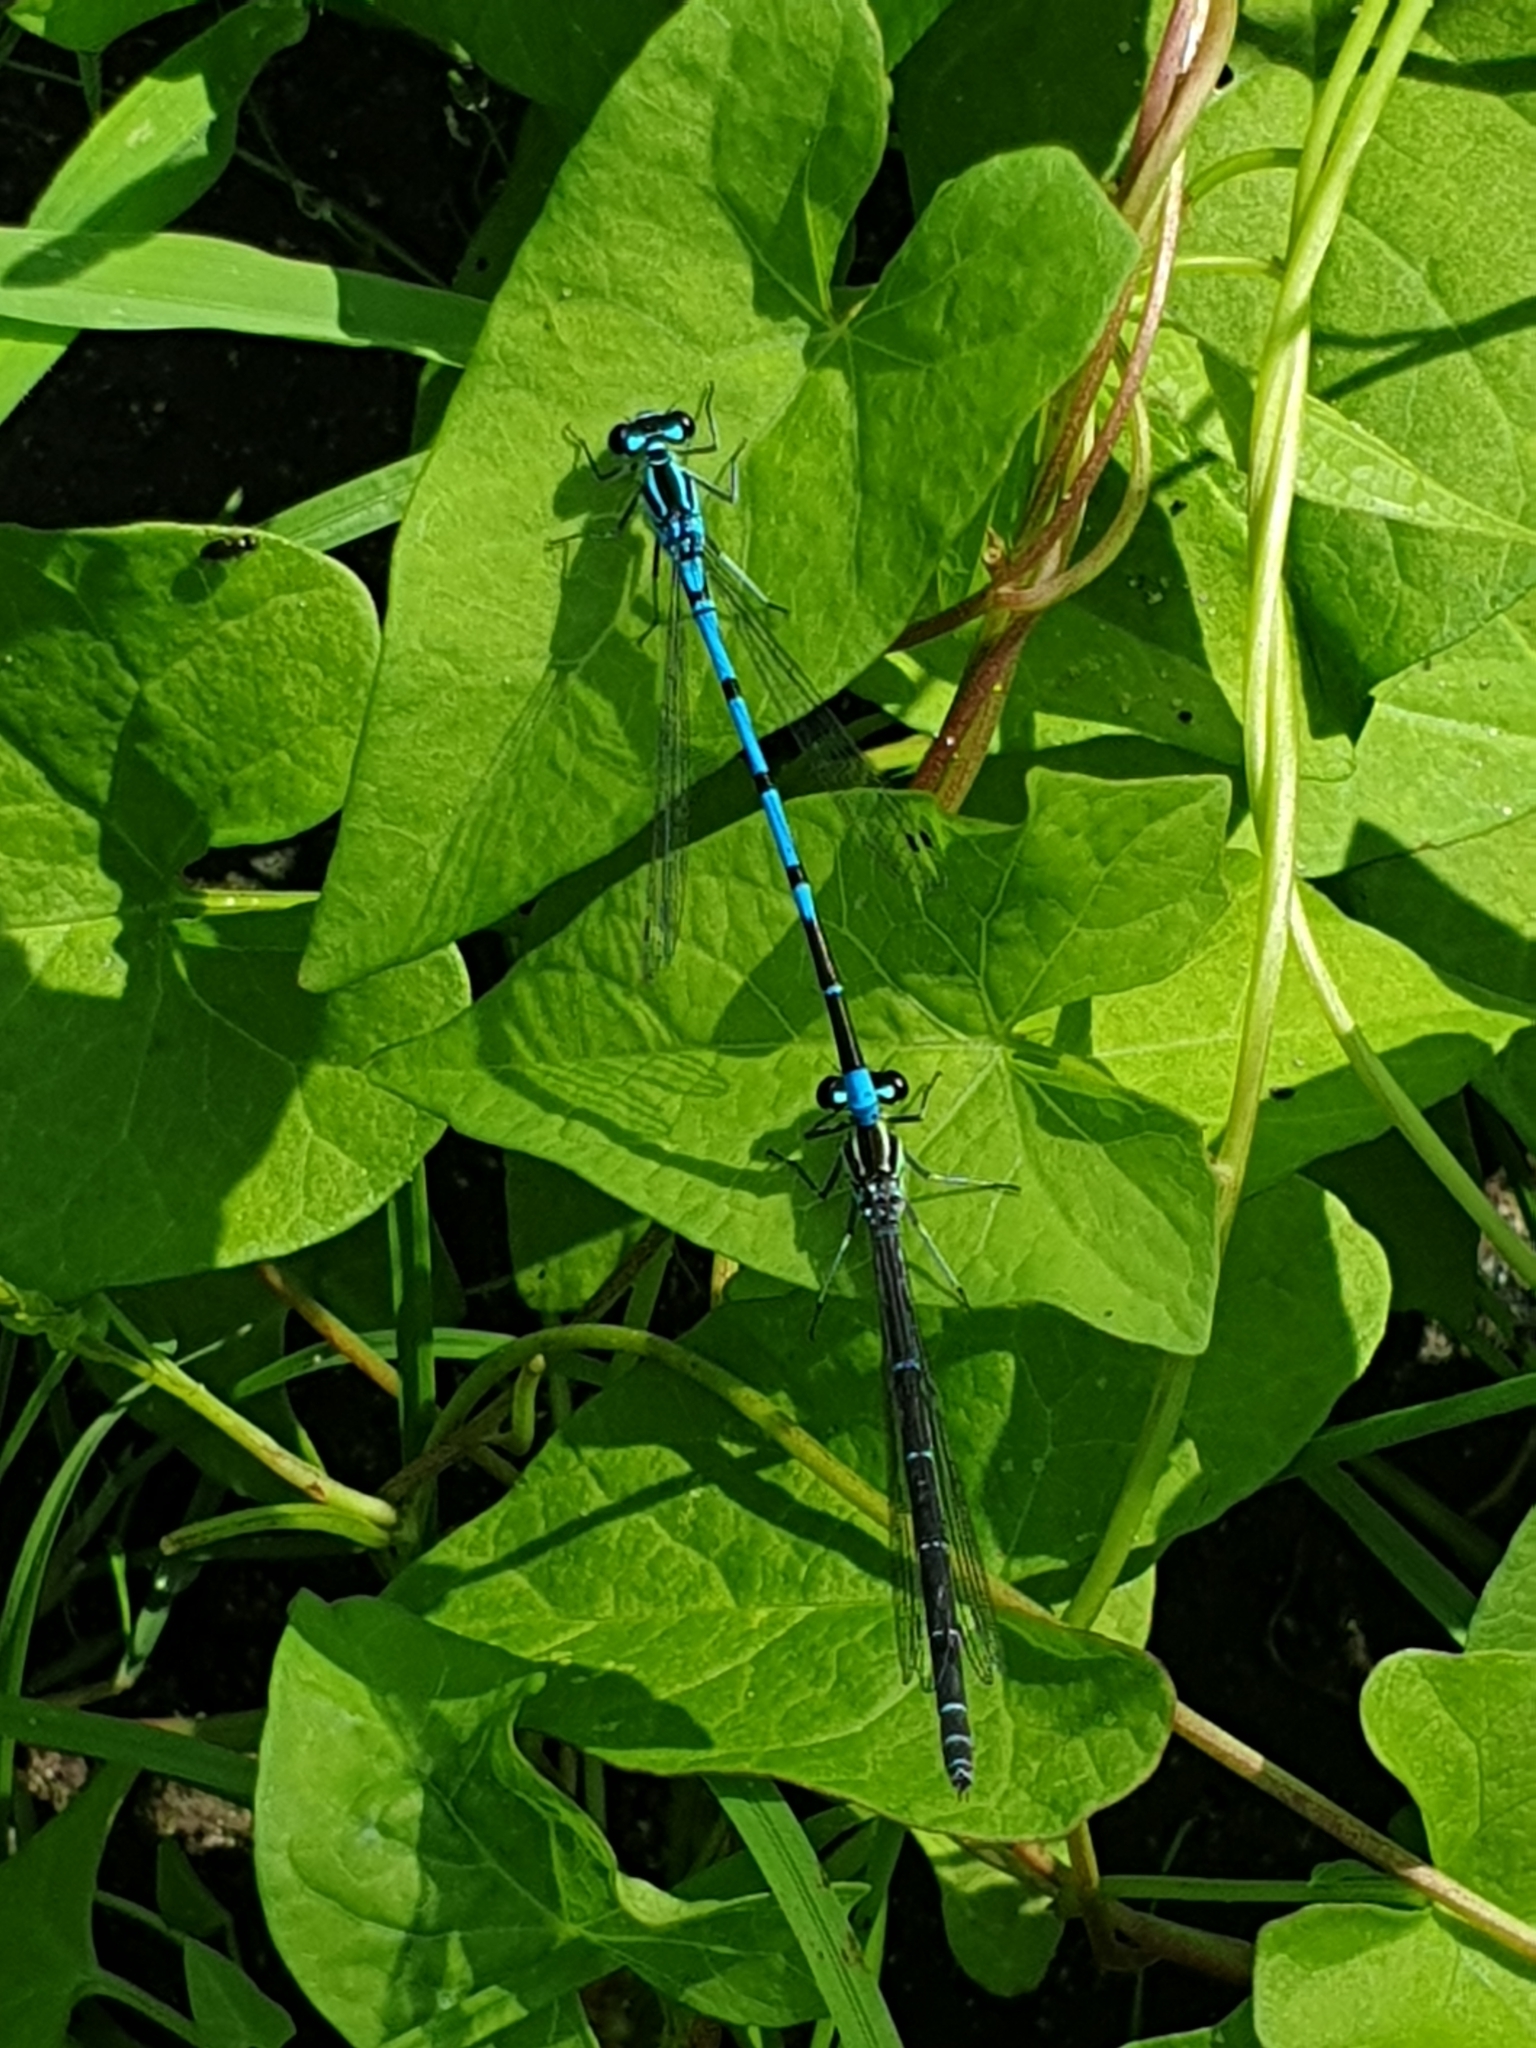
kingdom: Animalia
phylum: Arthropoda
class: Insecta
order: Odonata
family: Coenagrionidae
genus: Coenagrion
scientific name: Coenagrion puella
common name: Azure damselfly
